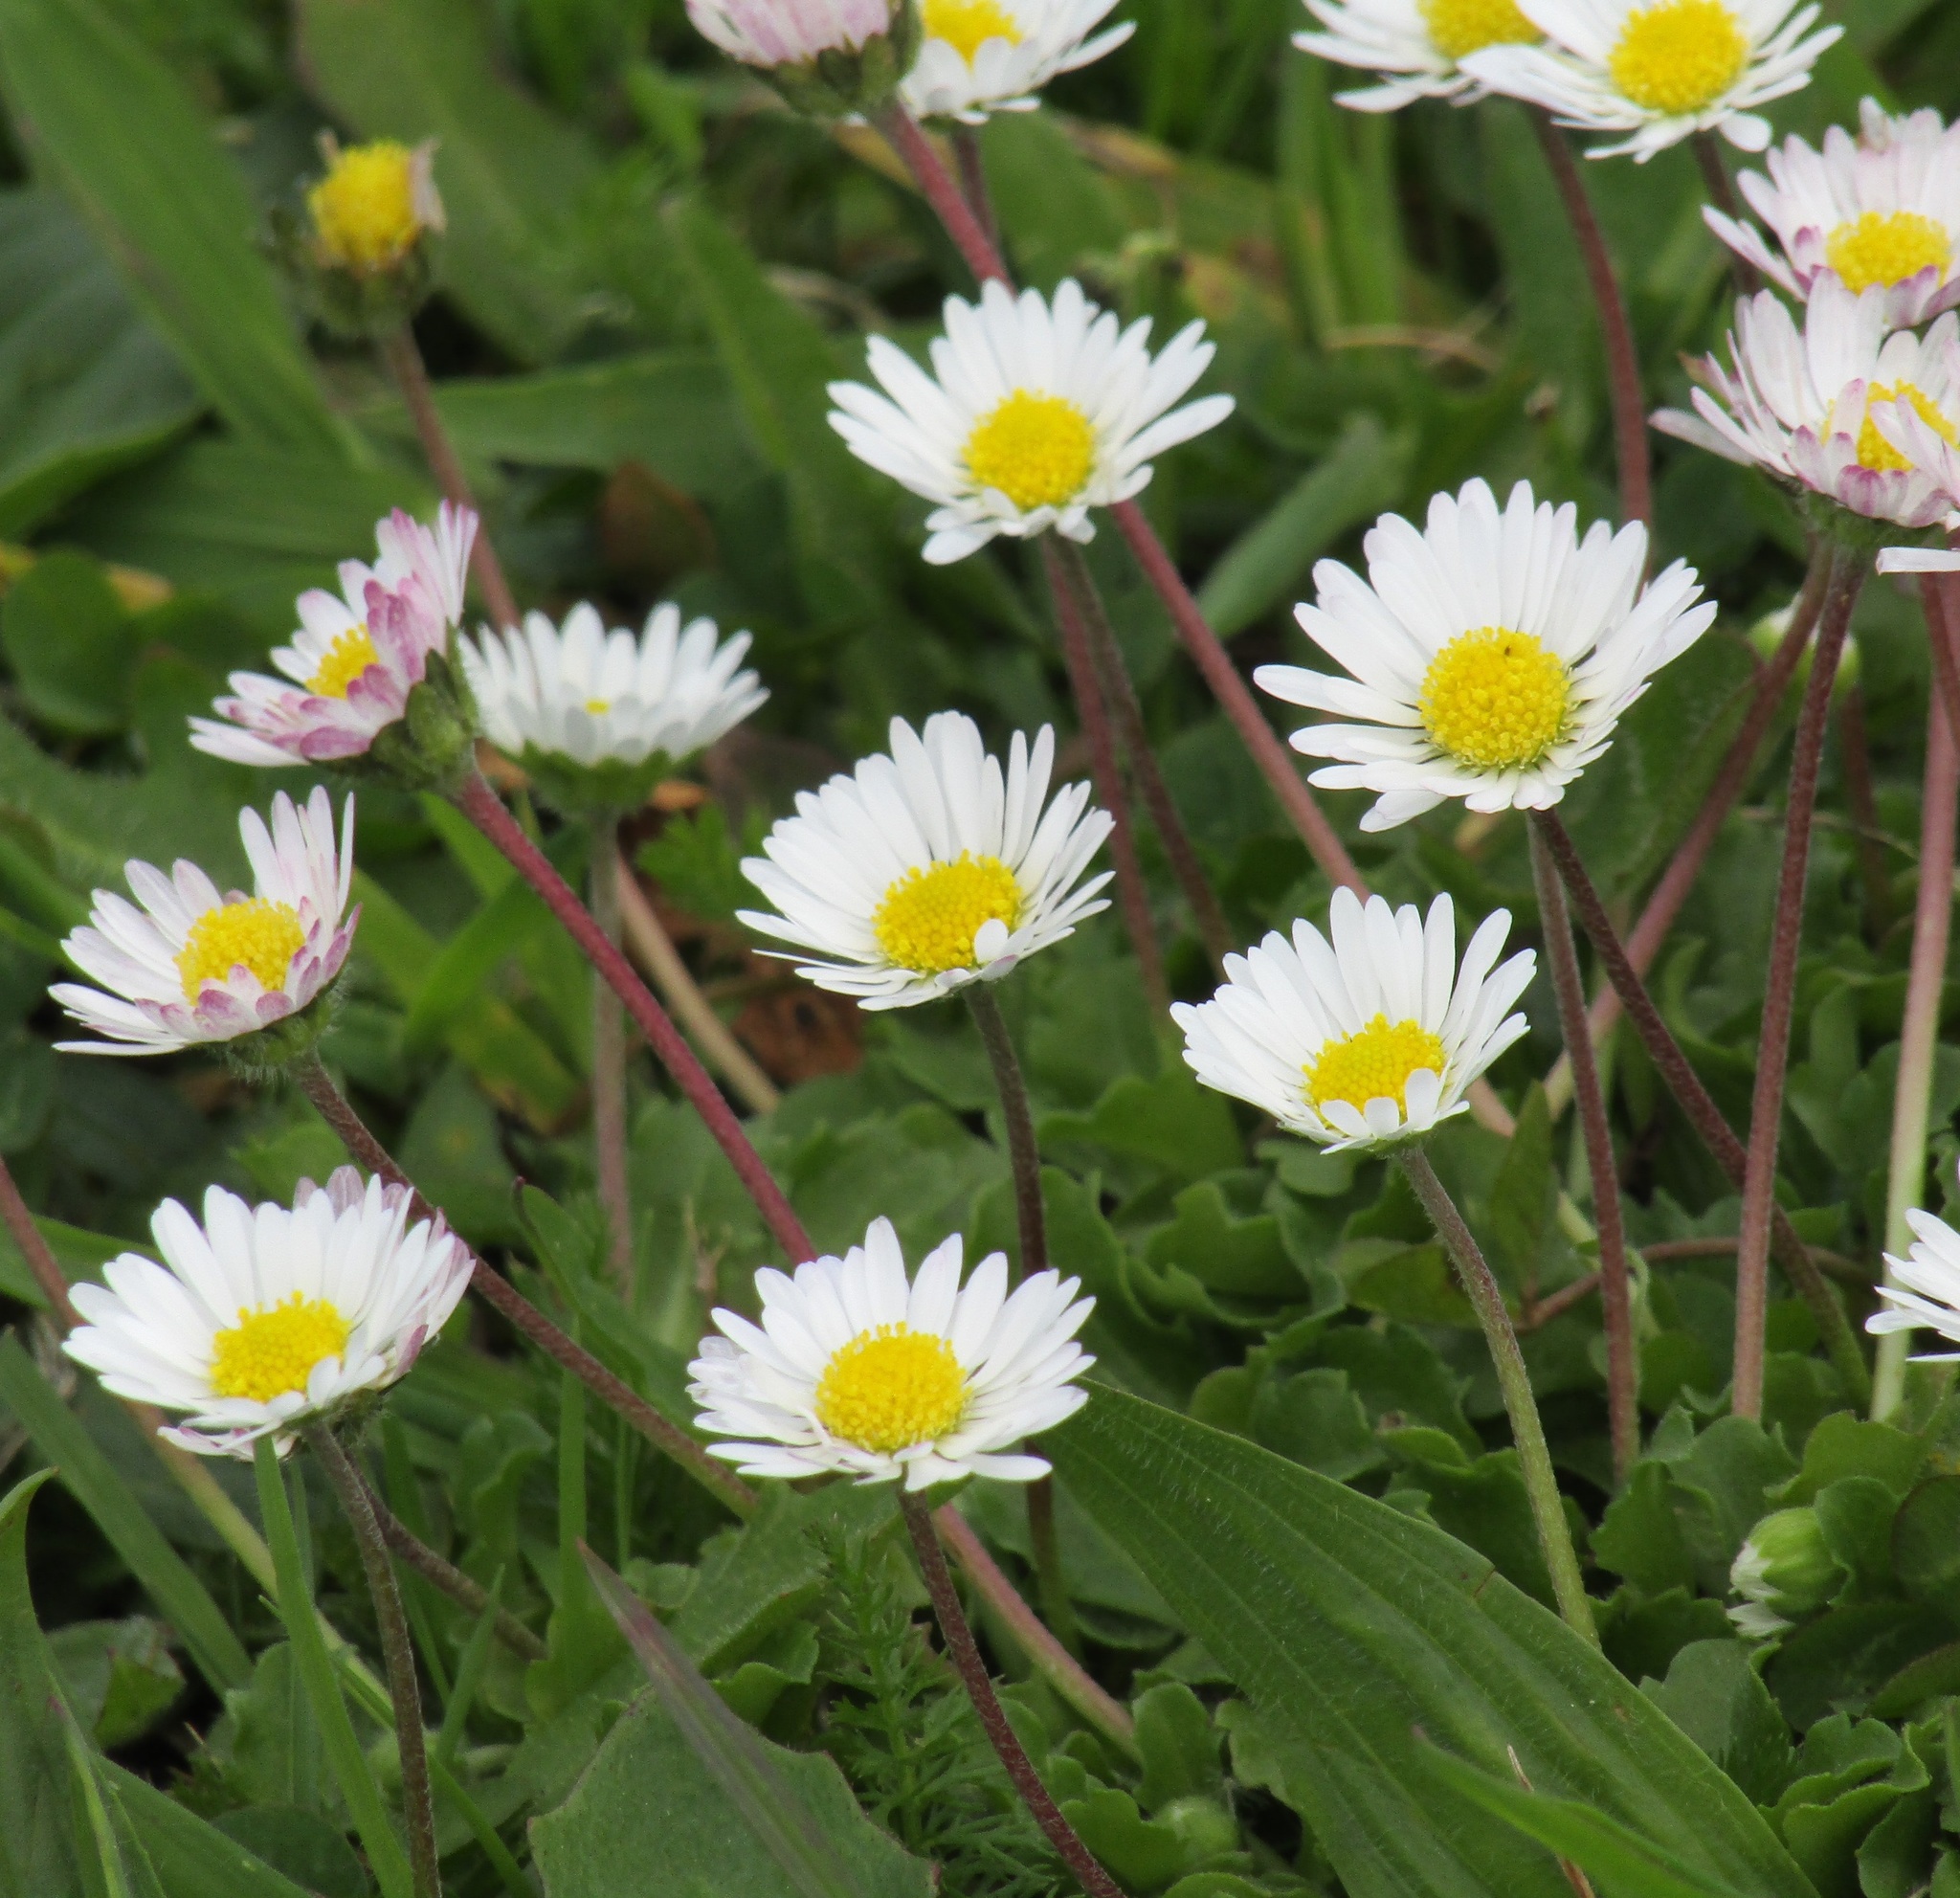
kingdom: Plantae
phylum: Tracheophyta
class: Magnoliopsida
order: Asterales
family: Asteraceae
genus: Bellis
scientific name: Bellis perennis
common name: Lawndaisy
